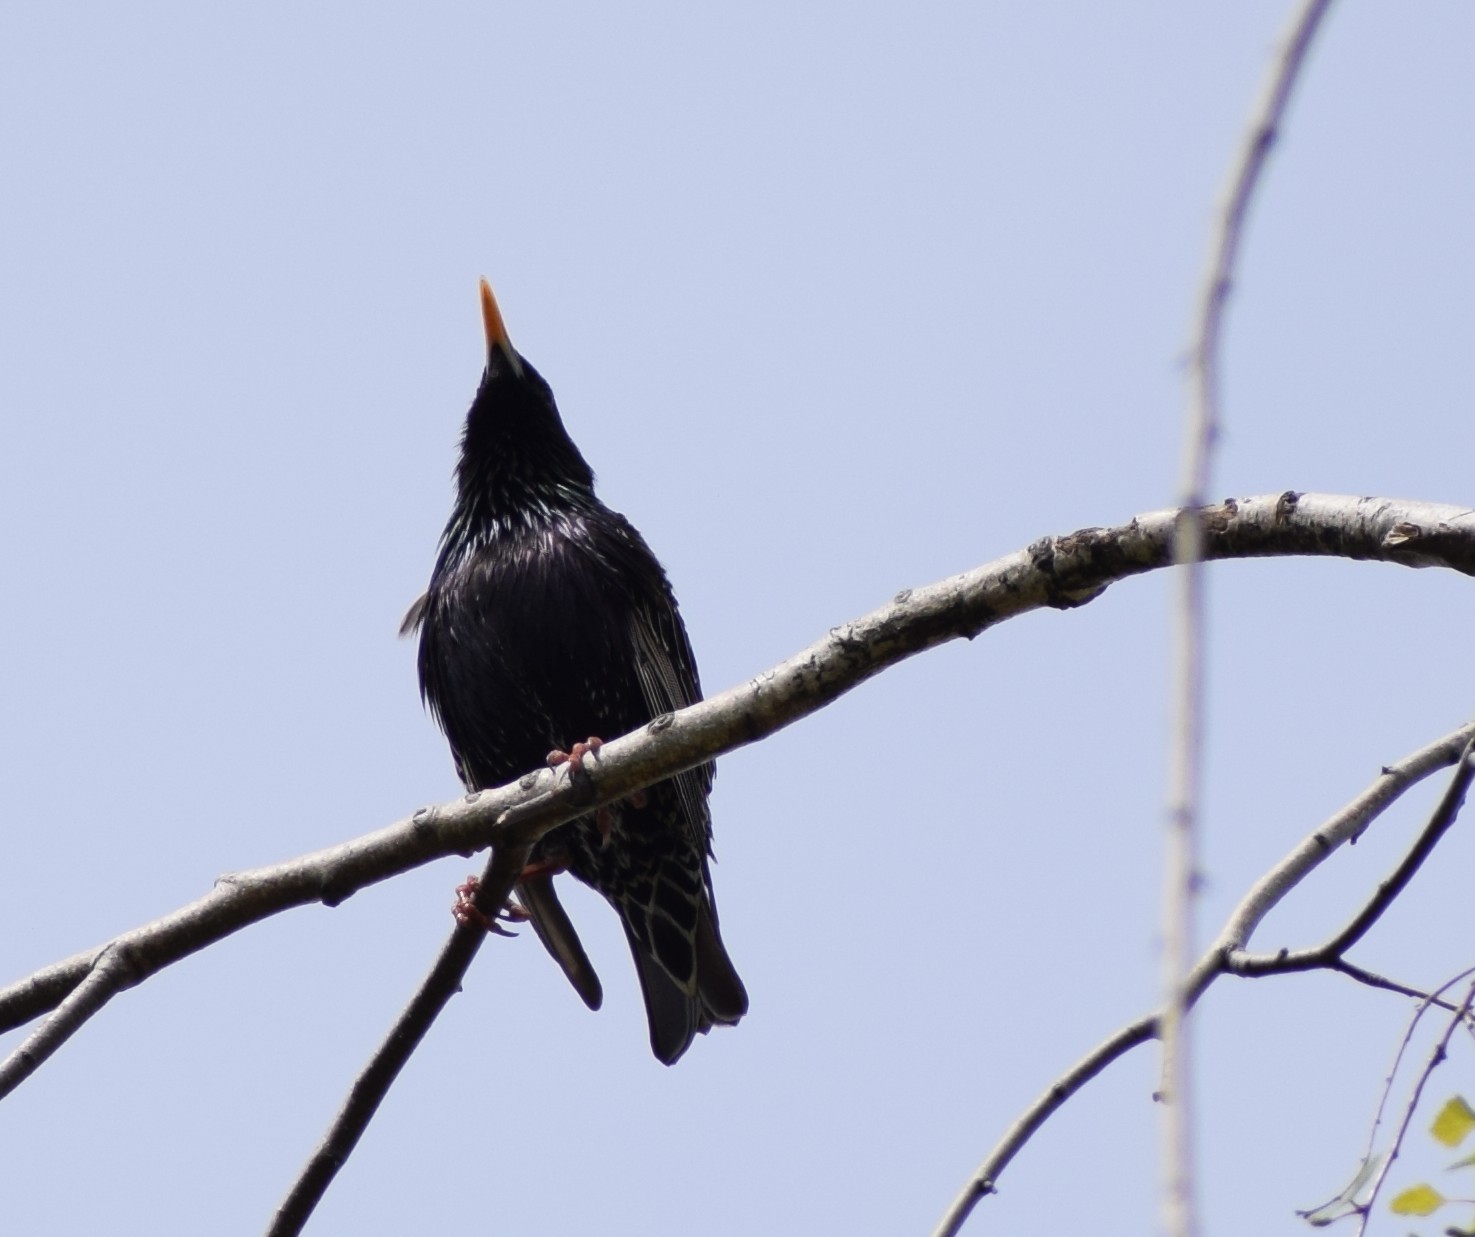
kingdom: Animalia
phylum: Chordata
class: Aves
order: Passeriformes
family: Sturnidae
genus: Sturnus
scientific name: Sturnus vulgaris
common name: Common starling
